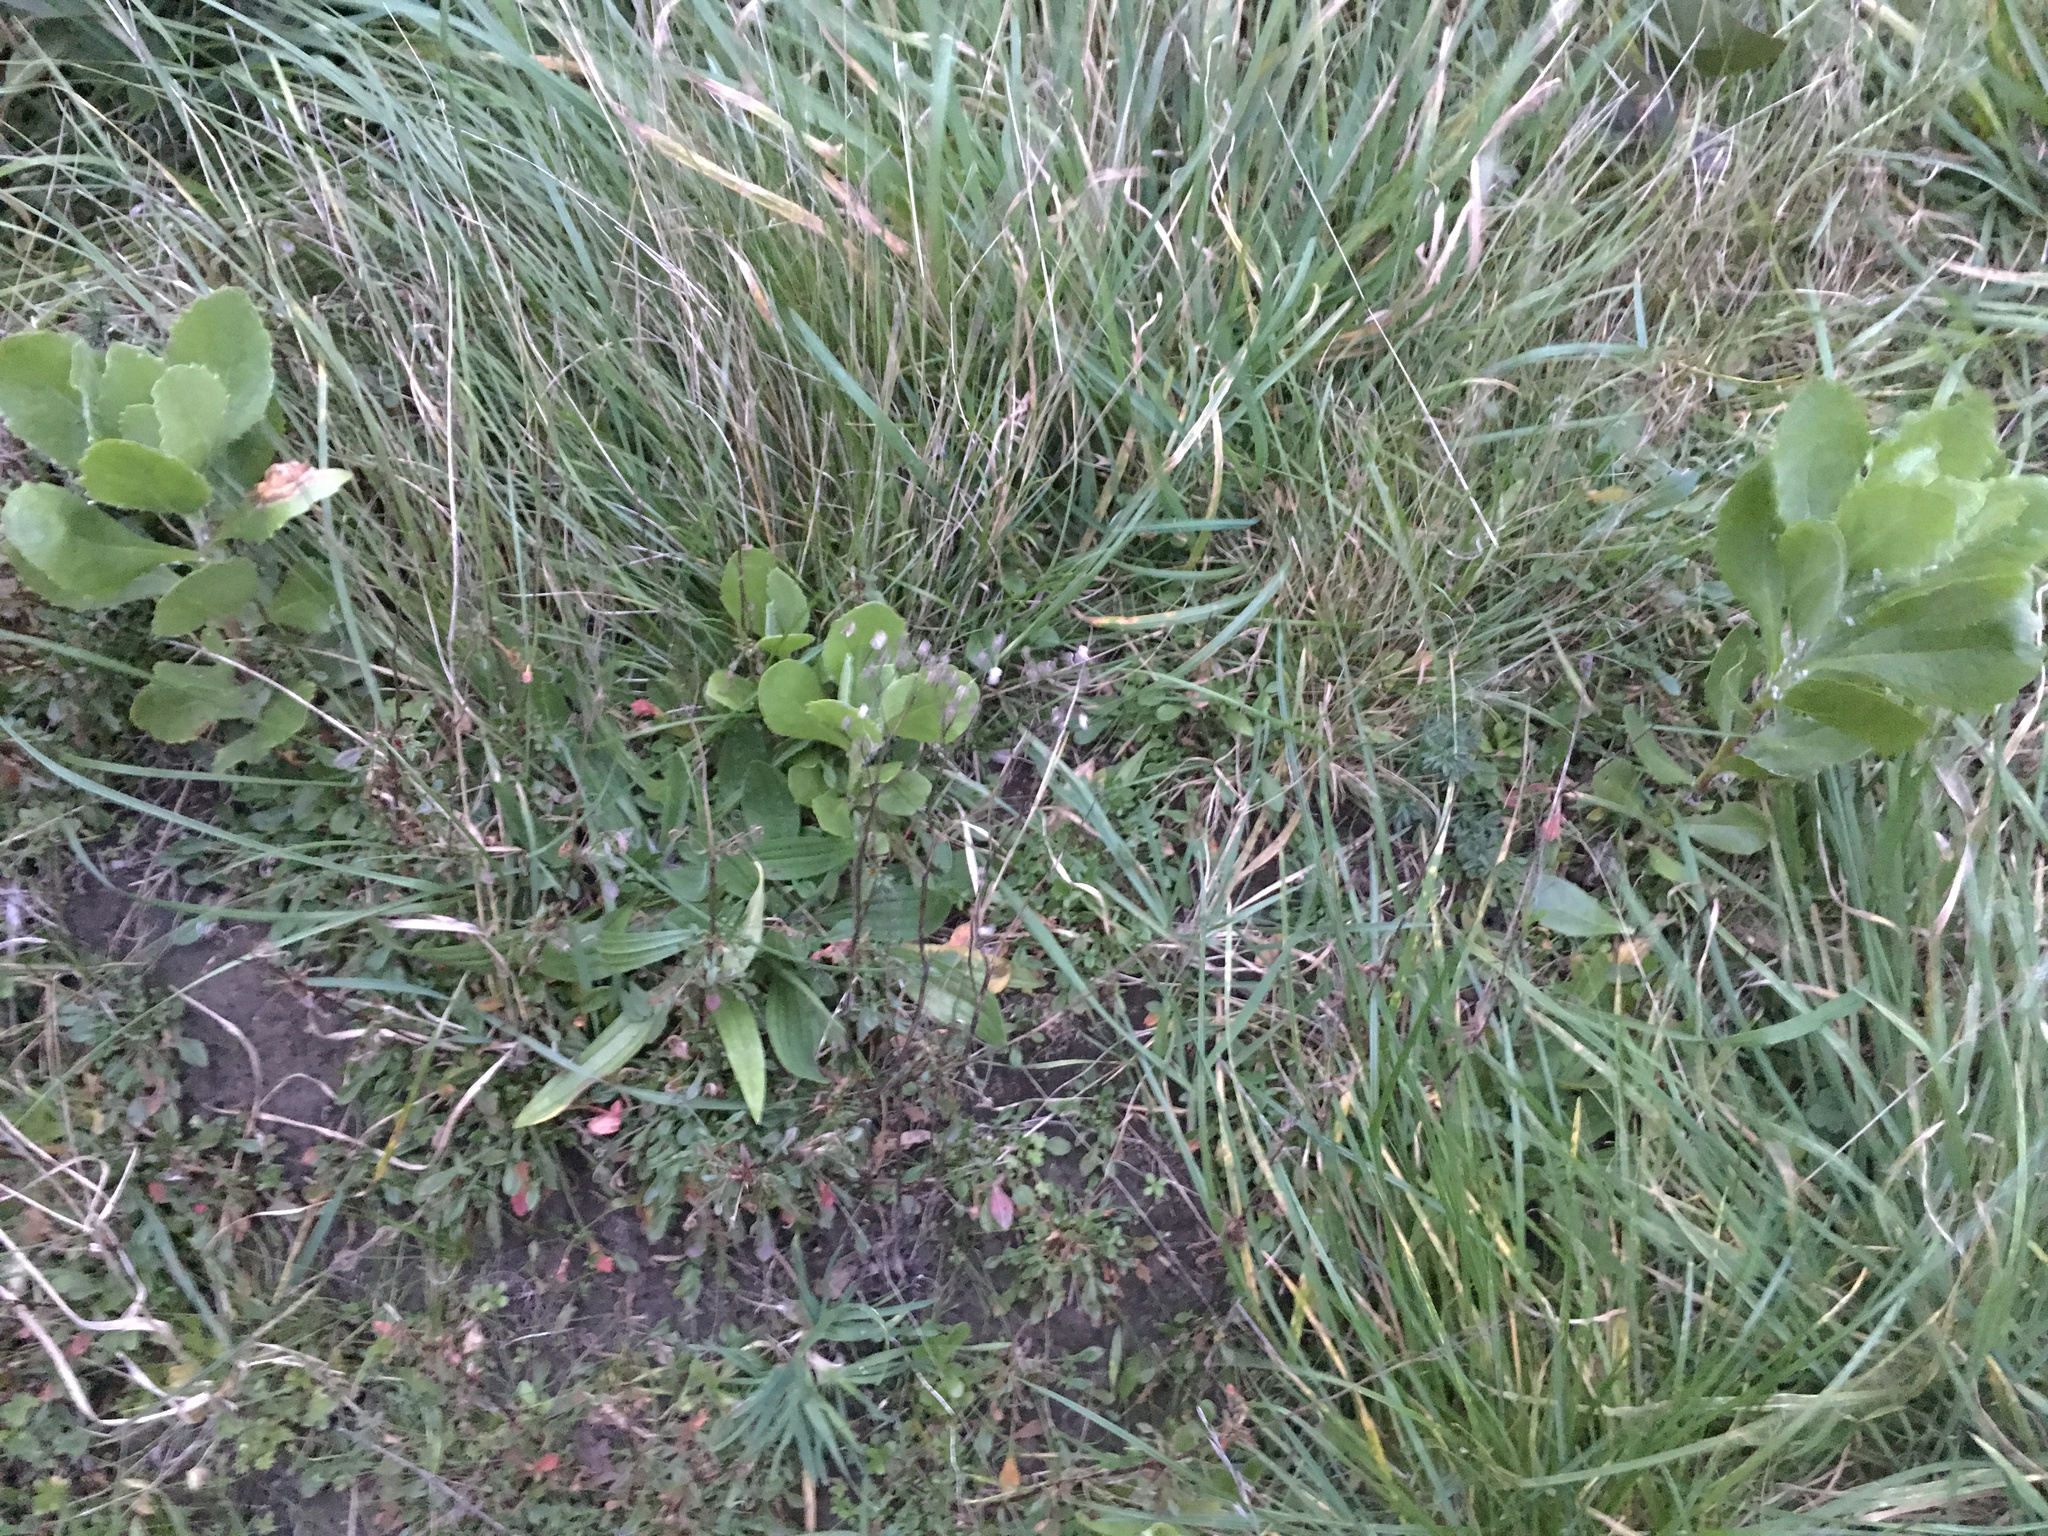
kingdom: Plantae
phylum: Tracheophyta
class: Magnoliopsida
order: Asterales
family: Asteraceae
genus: Osteospermum
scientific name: Osteospermum moniliferum
